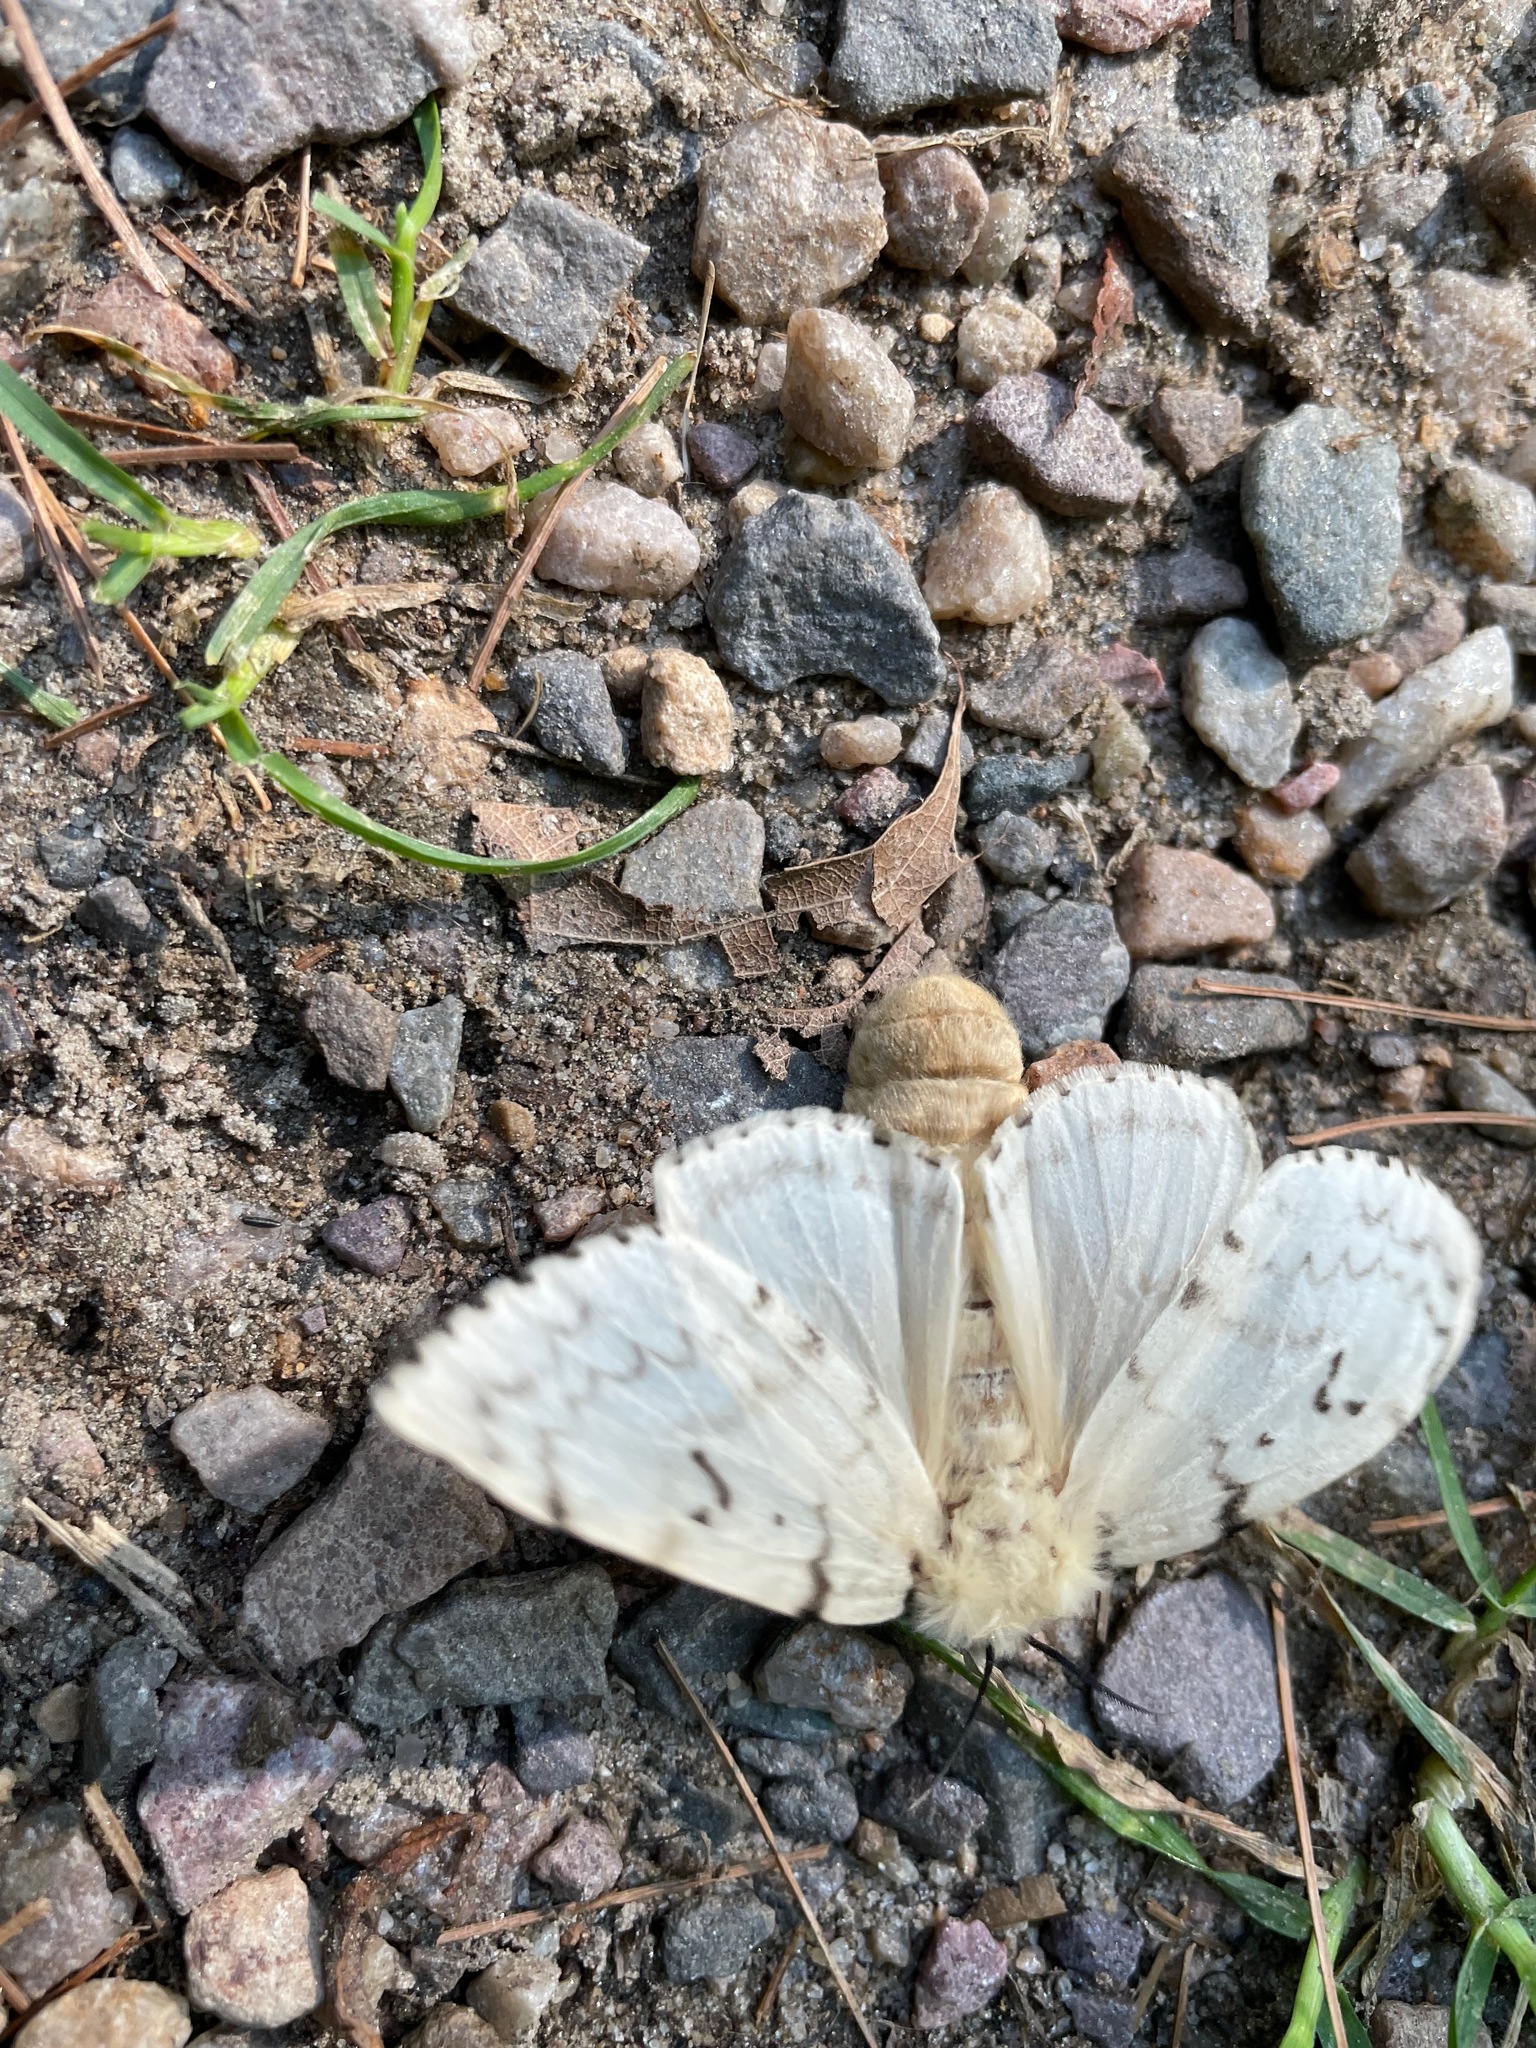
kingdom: Animalia
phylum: Arthropoda
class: Insecta
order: Lepidoptera
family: Erebidae
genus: Lymantria
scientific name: Lymantria dispar
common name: Gypsy moth
